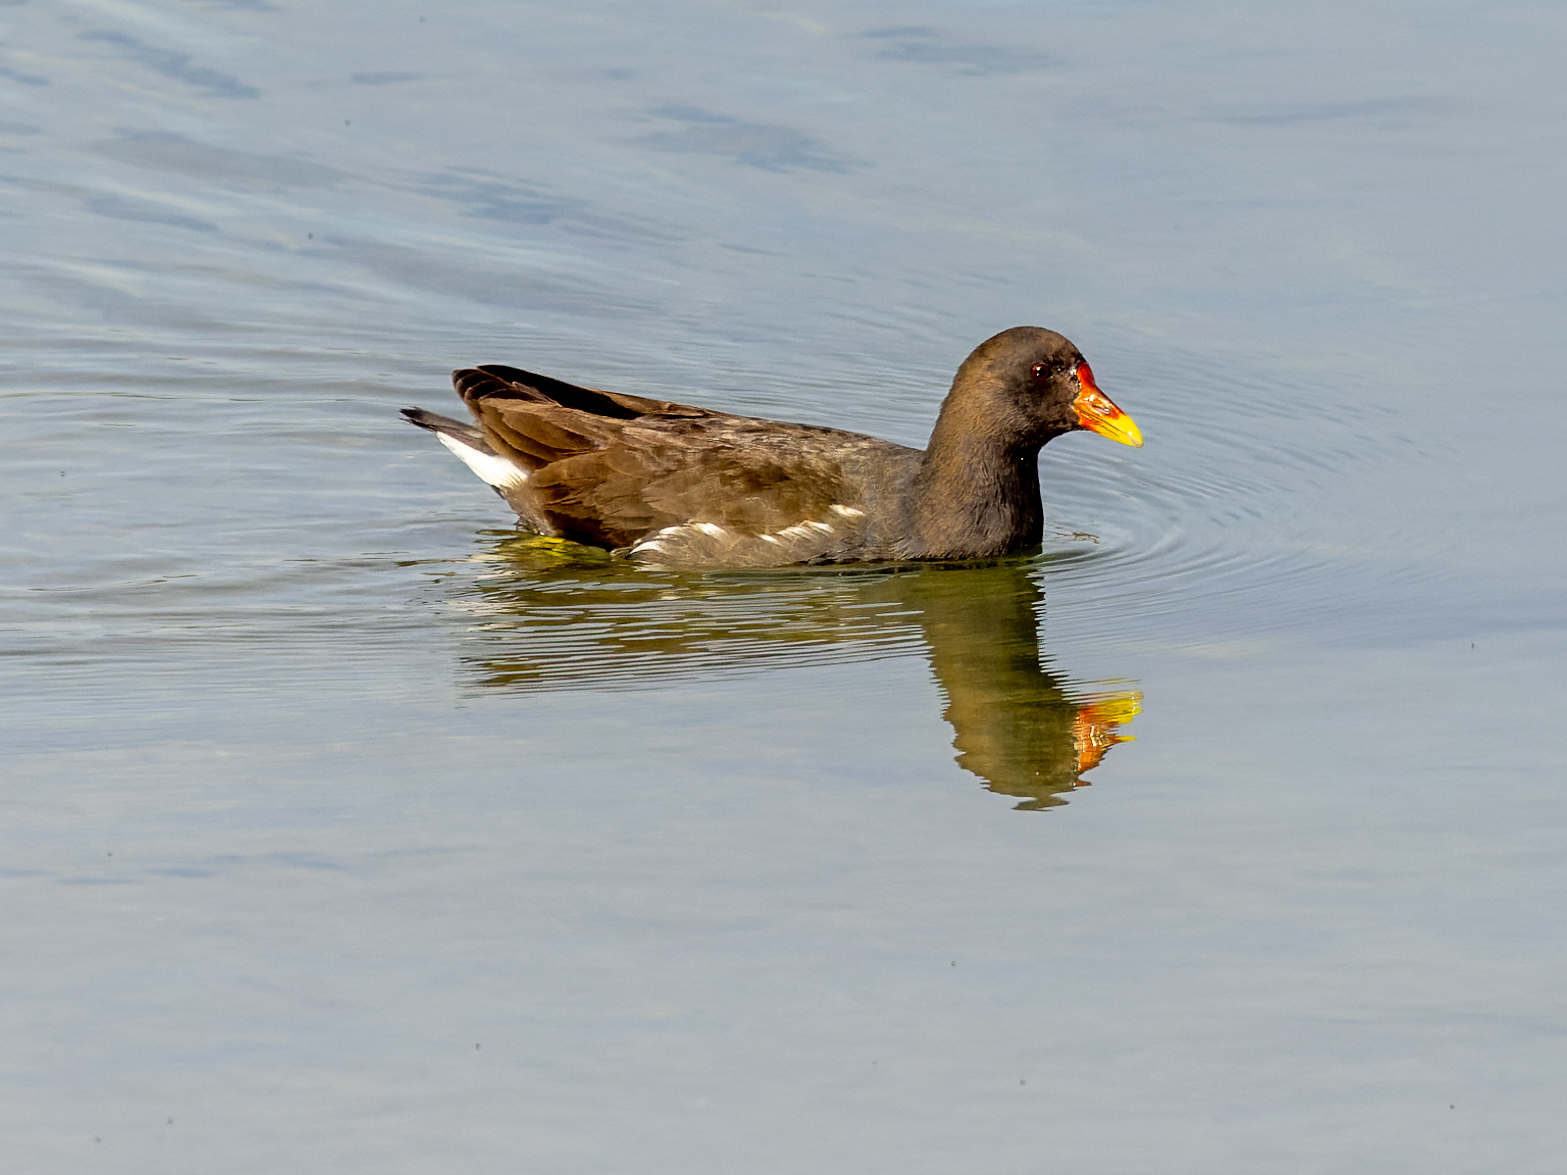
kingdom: Animalia
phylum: Chordata
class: Aves
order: Gruiformes
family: Rallidae
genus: Gallinula
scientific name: Gallinula chloropus
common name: Common moorhen
